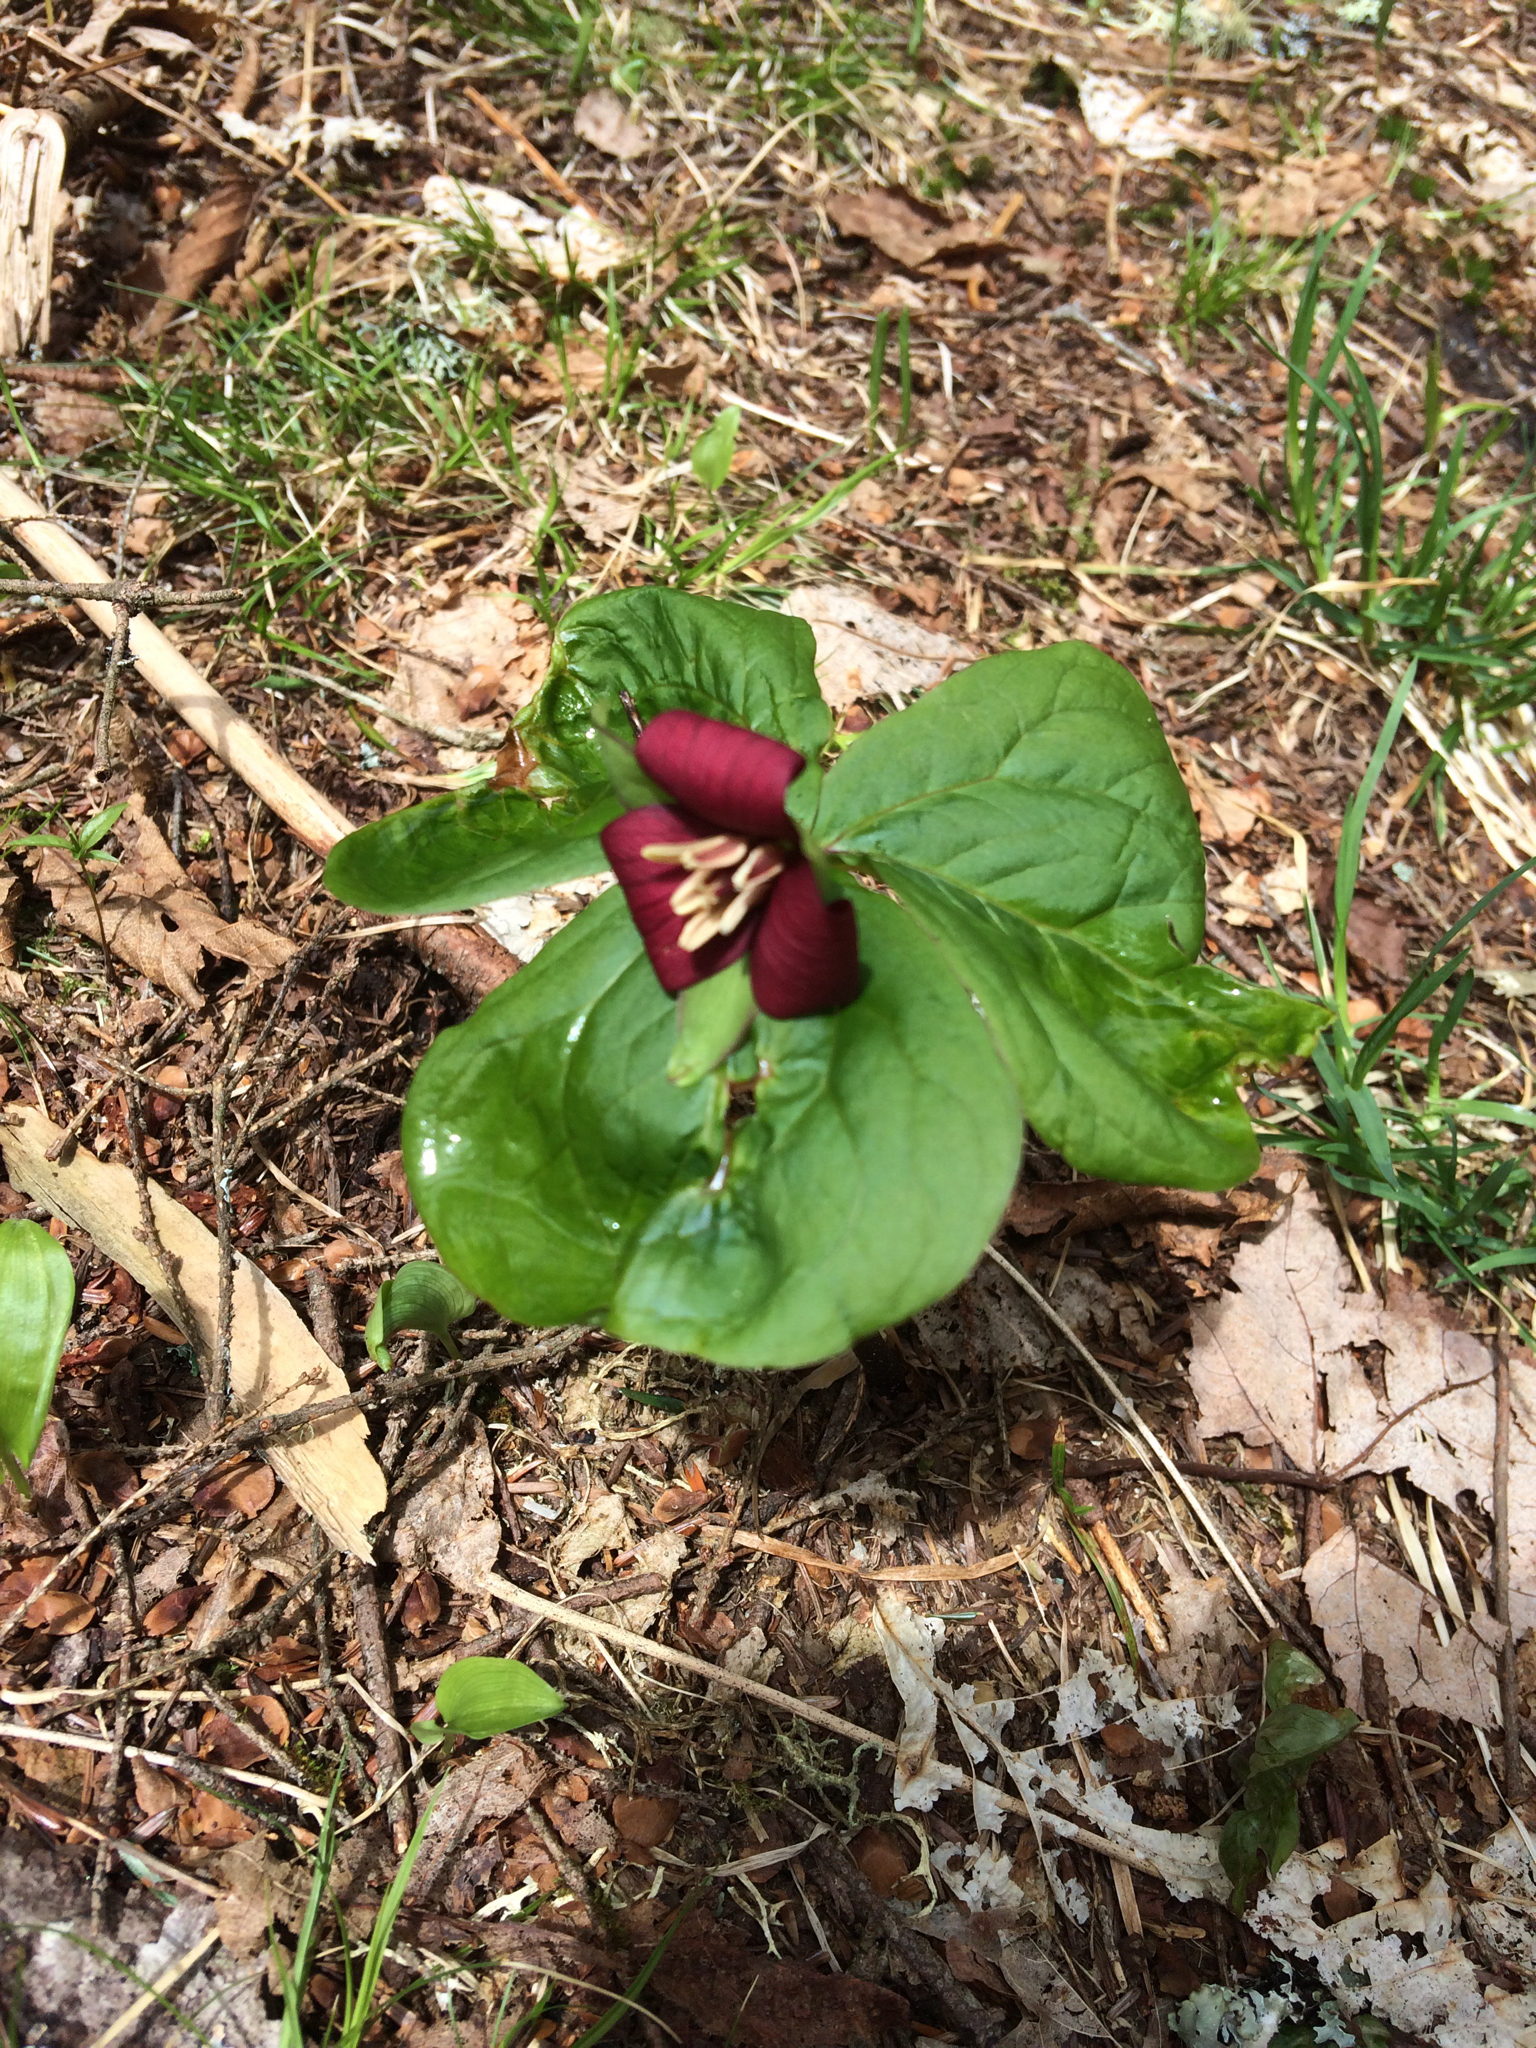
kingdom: Plantae
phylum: Tracheophyta
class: Liliopsida
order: Liliales
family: Melanthiaceae
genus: Trillium
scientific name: Trillium erectum
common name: Purple trillium
